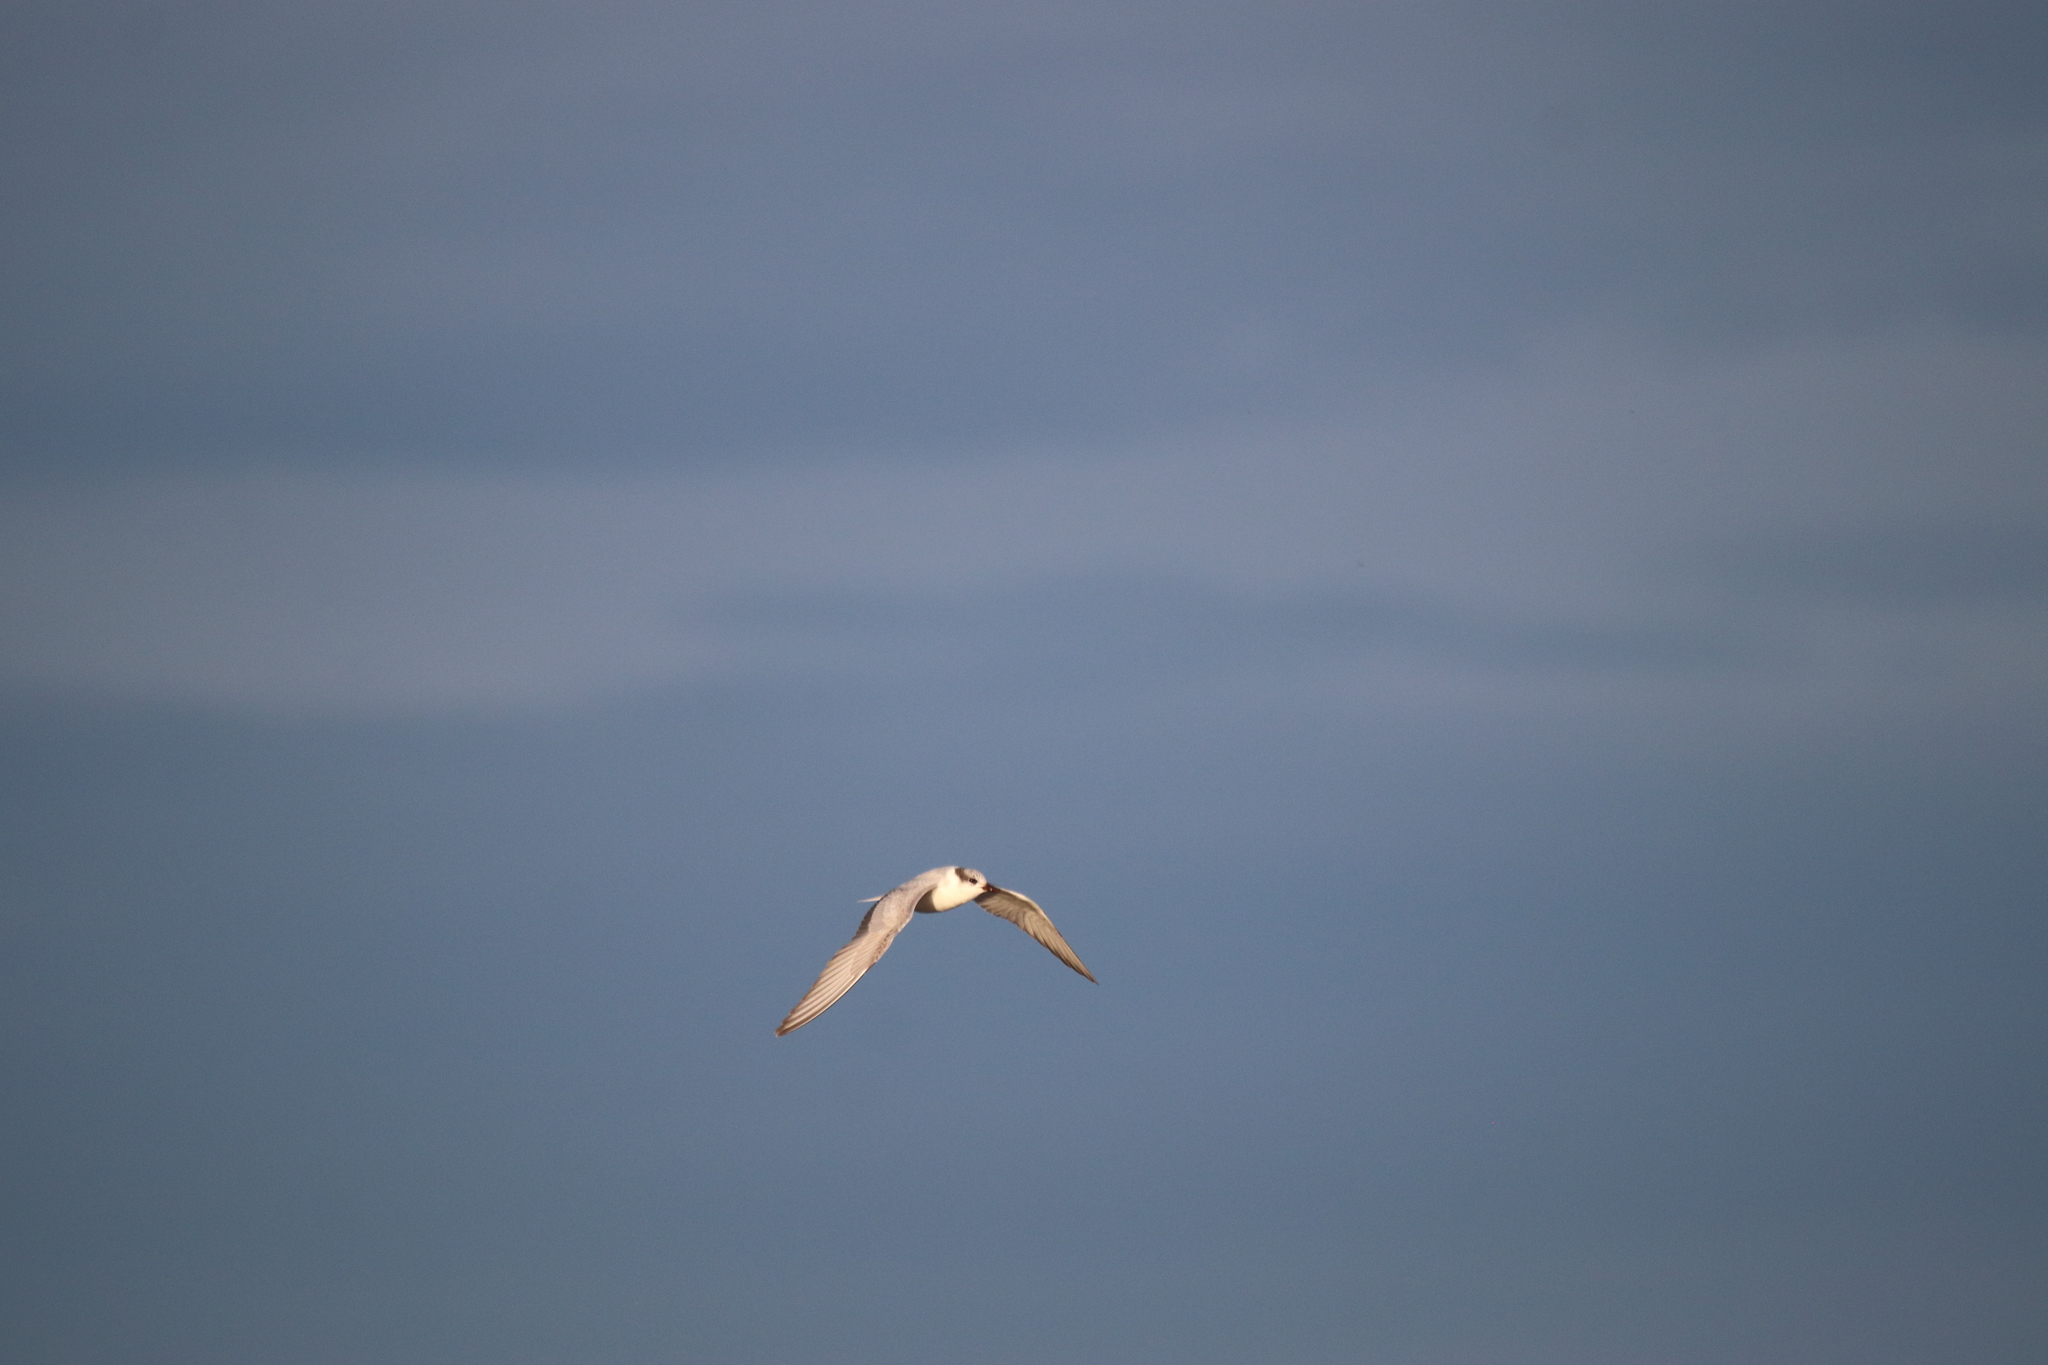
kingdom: Animalia
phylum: Chordata
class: Aves
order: Charadriiformes
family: Laridae
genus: Chlidonias
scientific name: Chlidonias hybrida
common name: Whiskered tern
